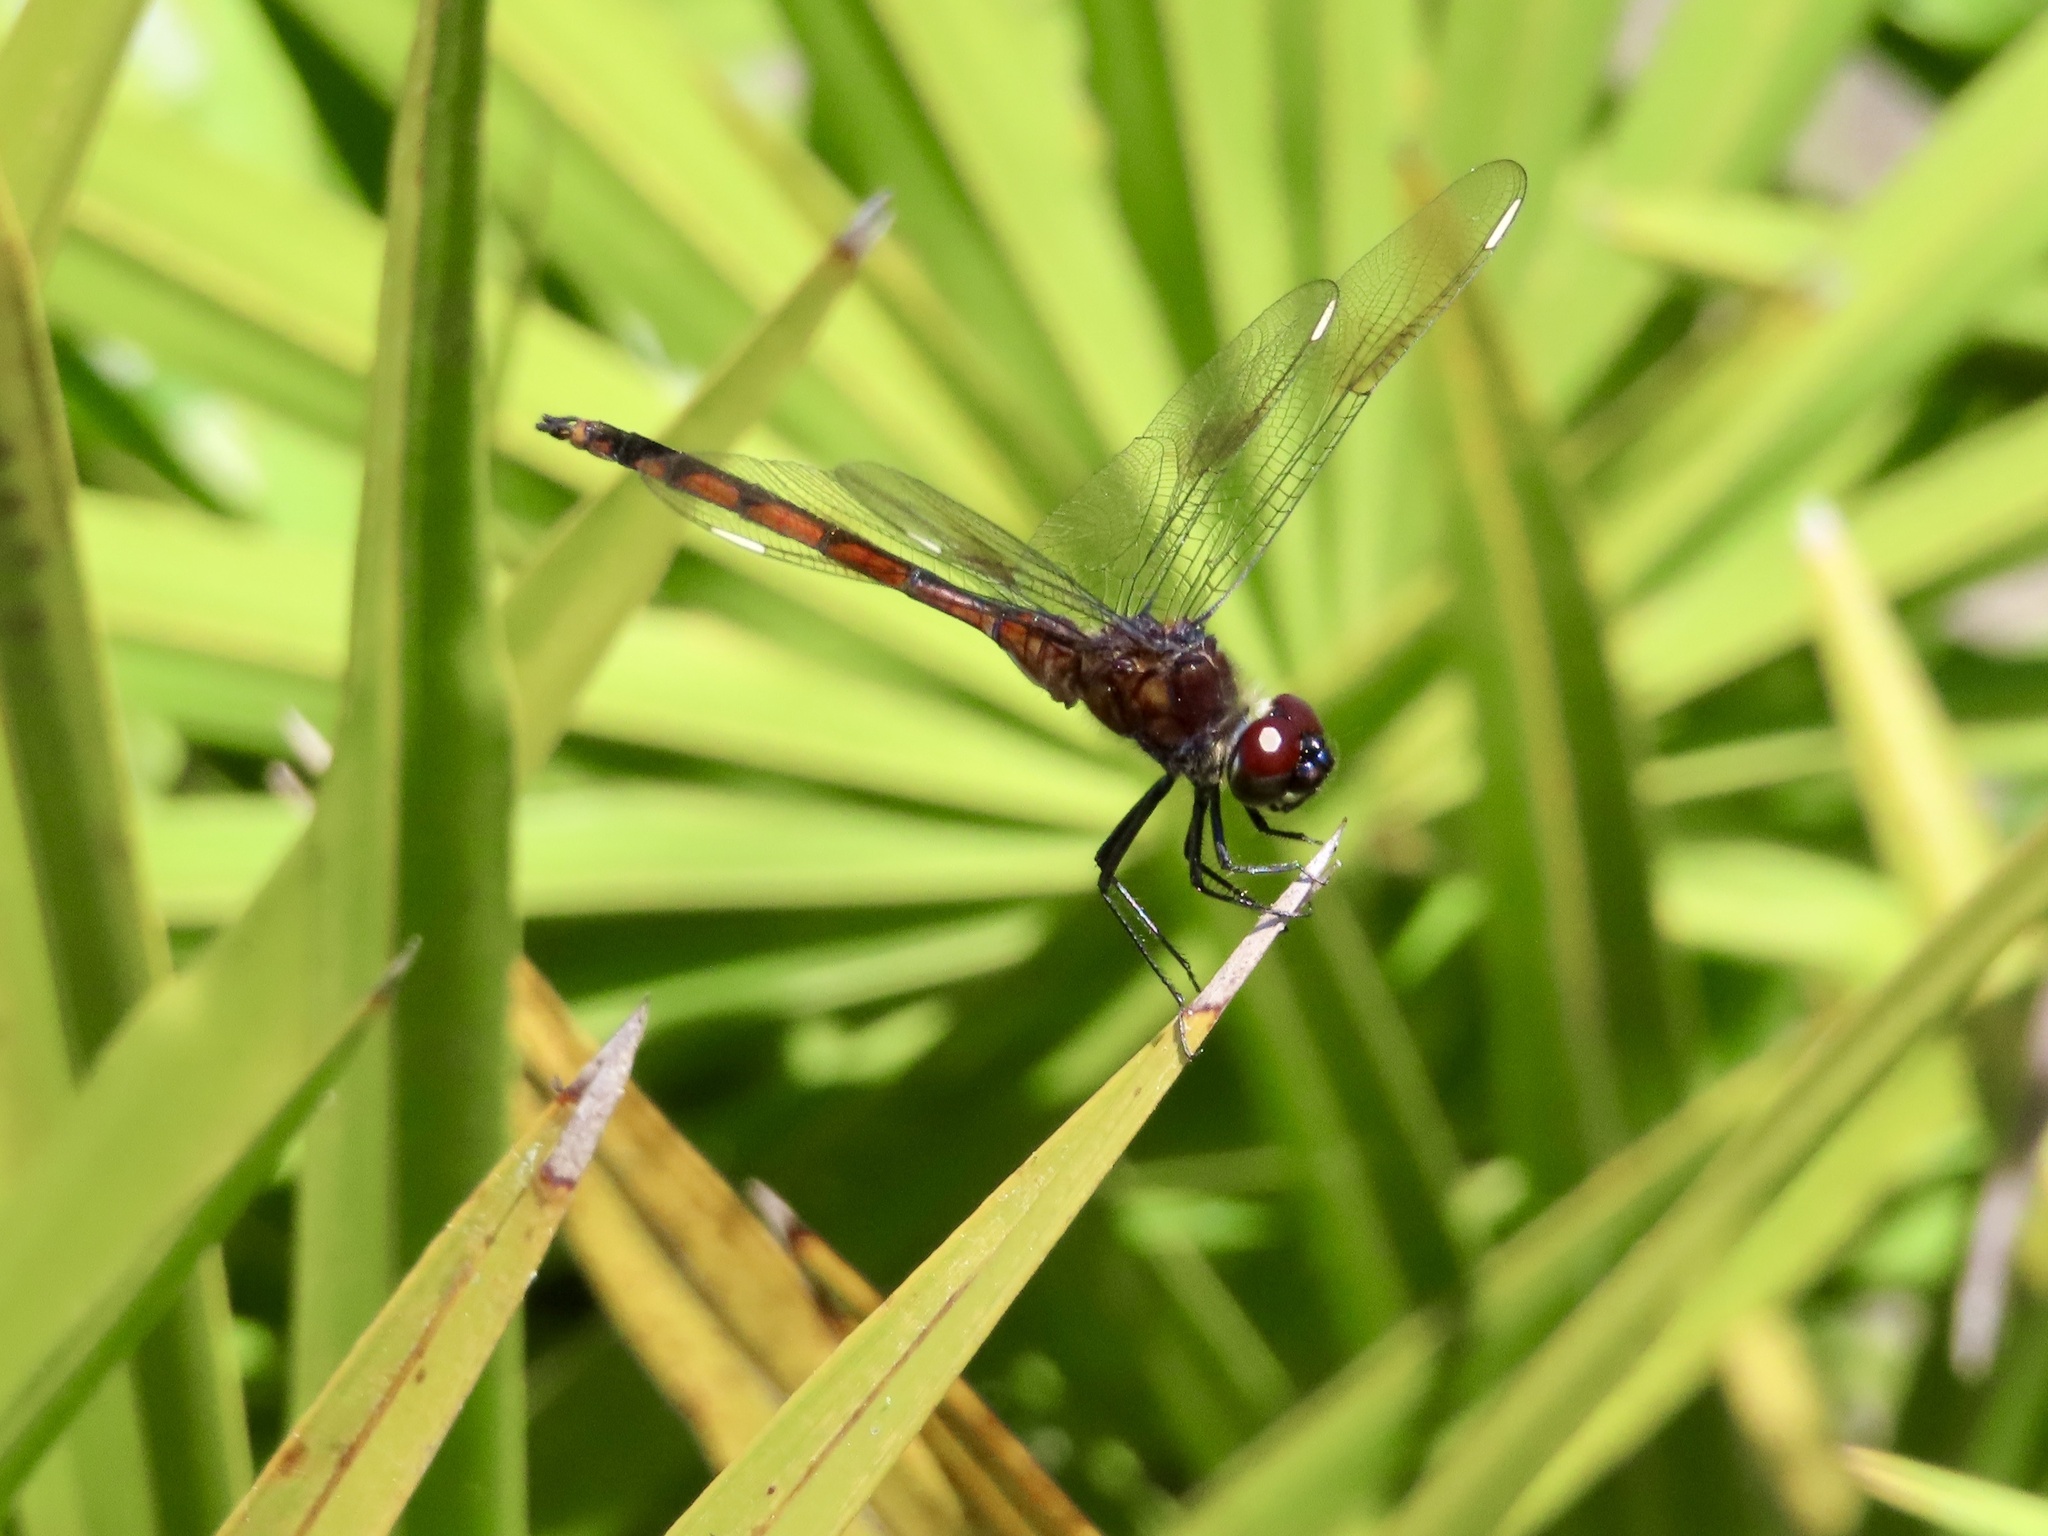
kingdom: Animalia
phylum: Arthropoda
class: Insecta
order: Odonata
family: Libellulidae
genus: Brachymesia
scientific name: Brachymesia gravida
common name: Four-spotted pennant
